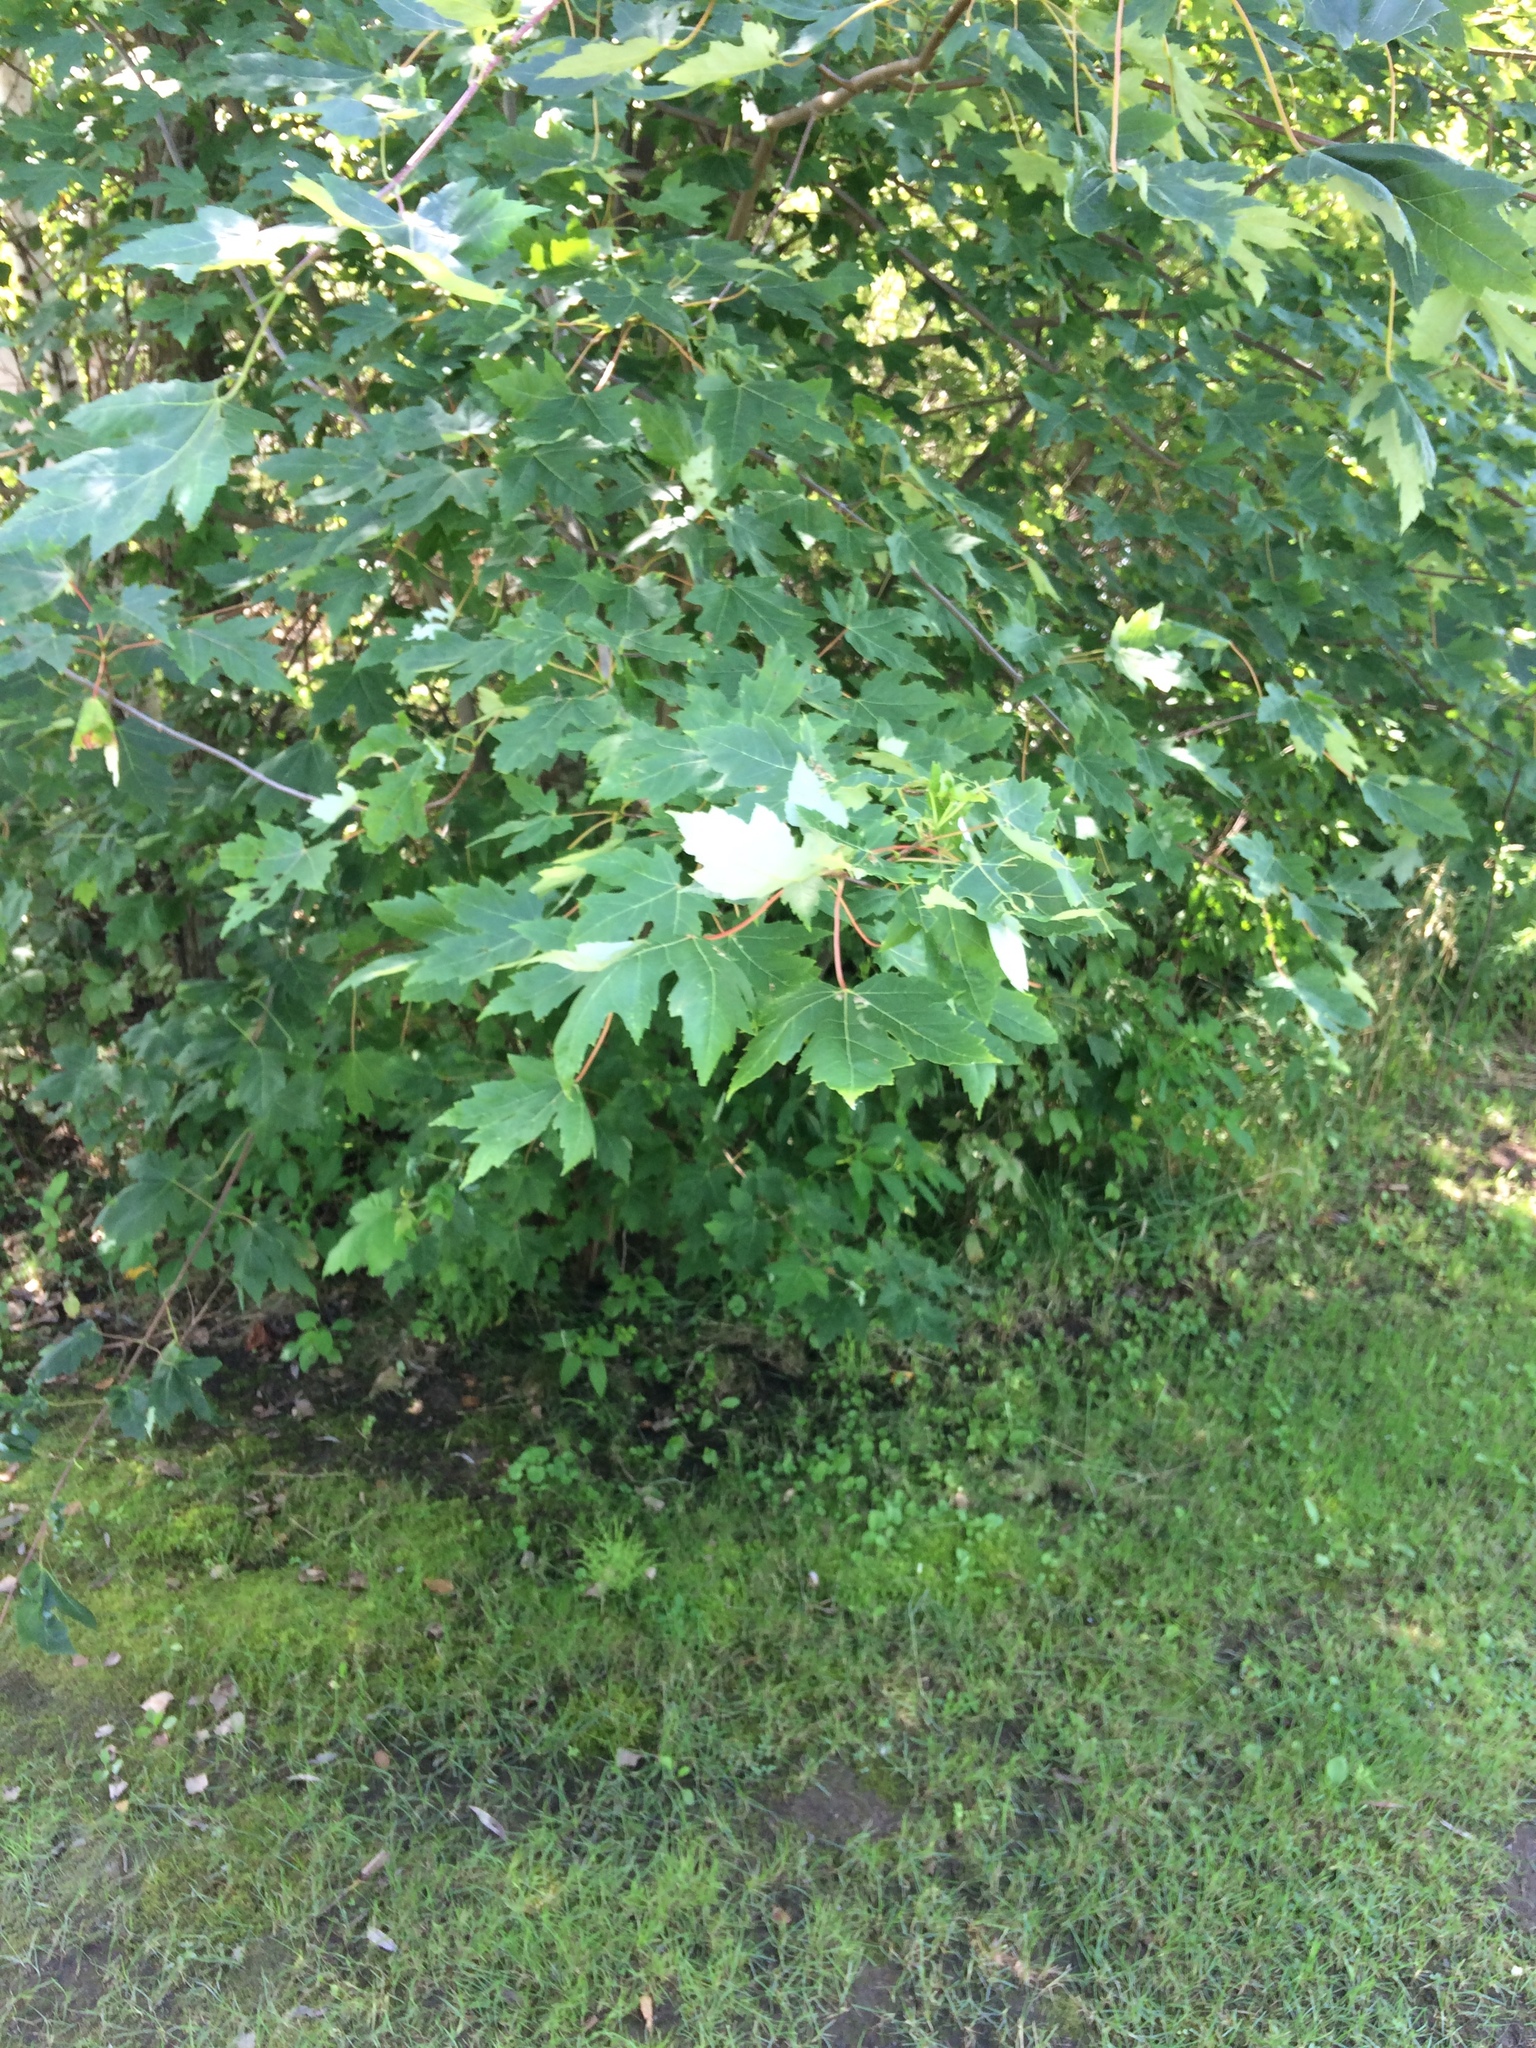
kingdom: Plantae
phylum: Tracheophyta
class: Magnoliopsida
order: Sapindales
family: Sapindaceae
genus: Acer
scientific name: Acer saccharinum
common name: Silver maple
